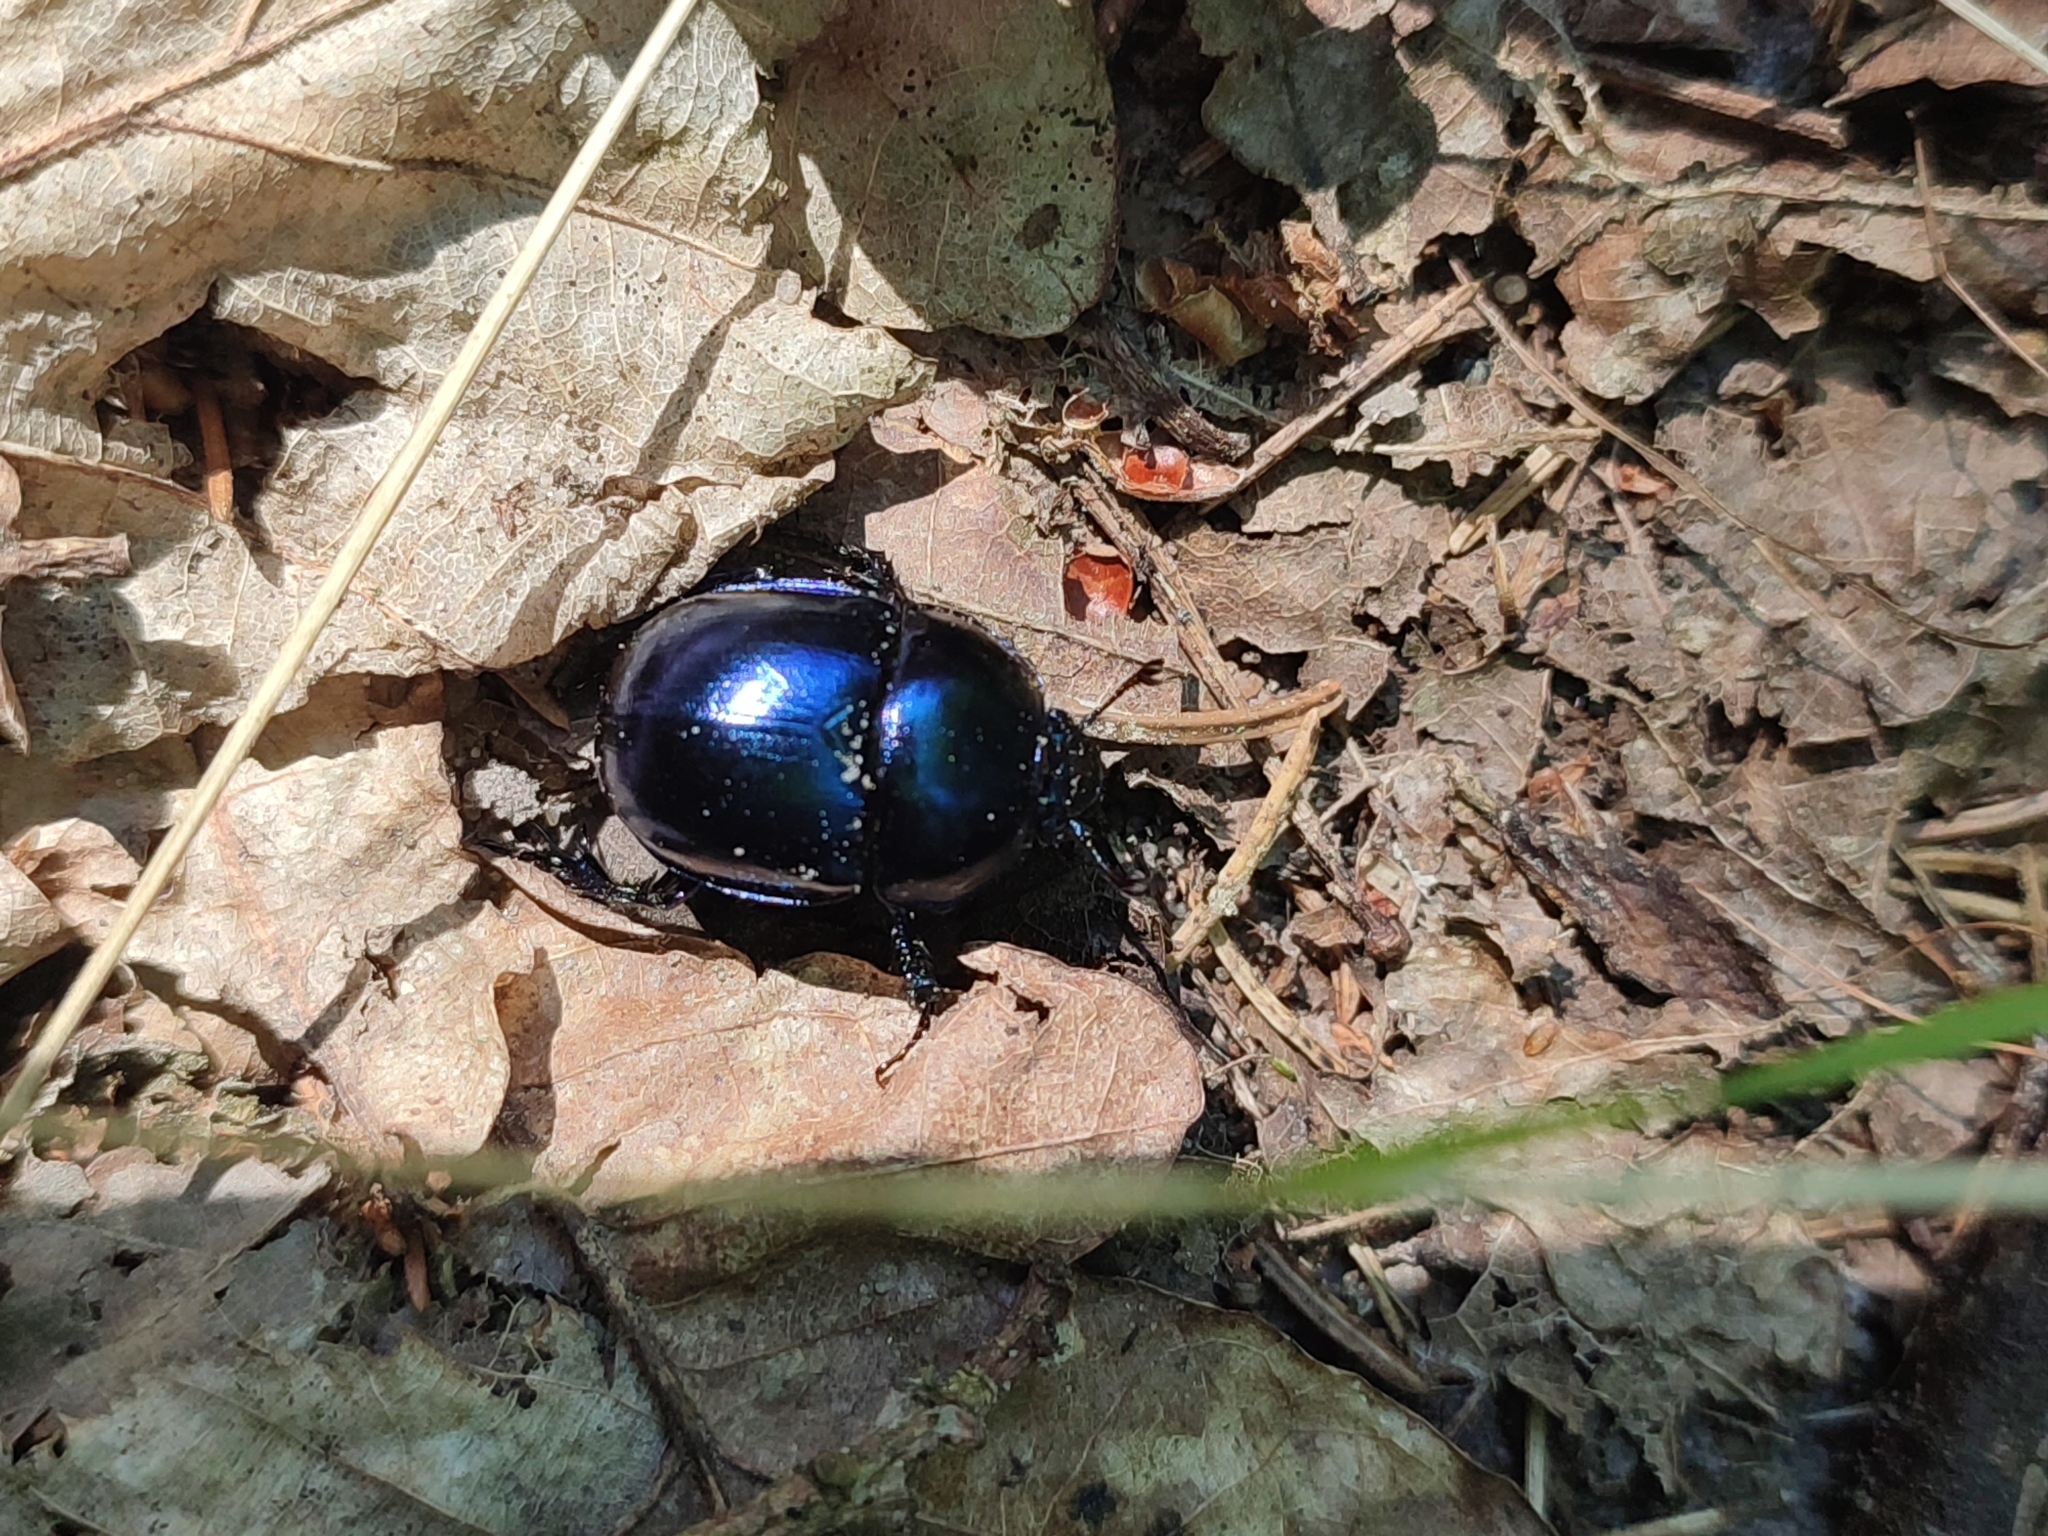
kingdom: Animalia
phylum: Arthropoda
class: Insecta
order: Coleoptera
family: Geotrupidae
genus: Trypocopris
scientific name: Trypocopris vernalis
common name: Spring dumbledor
